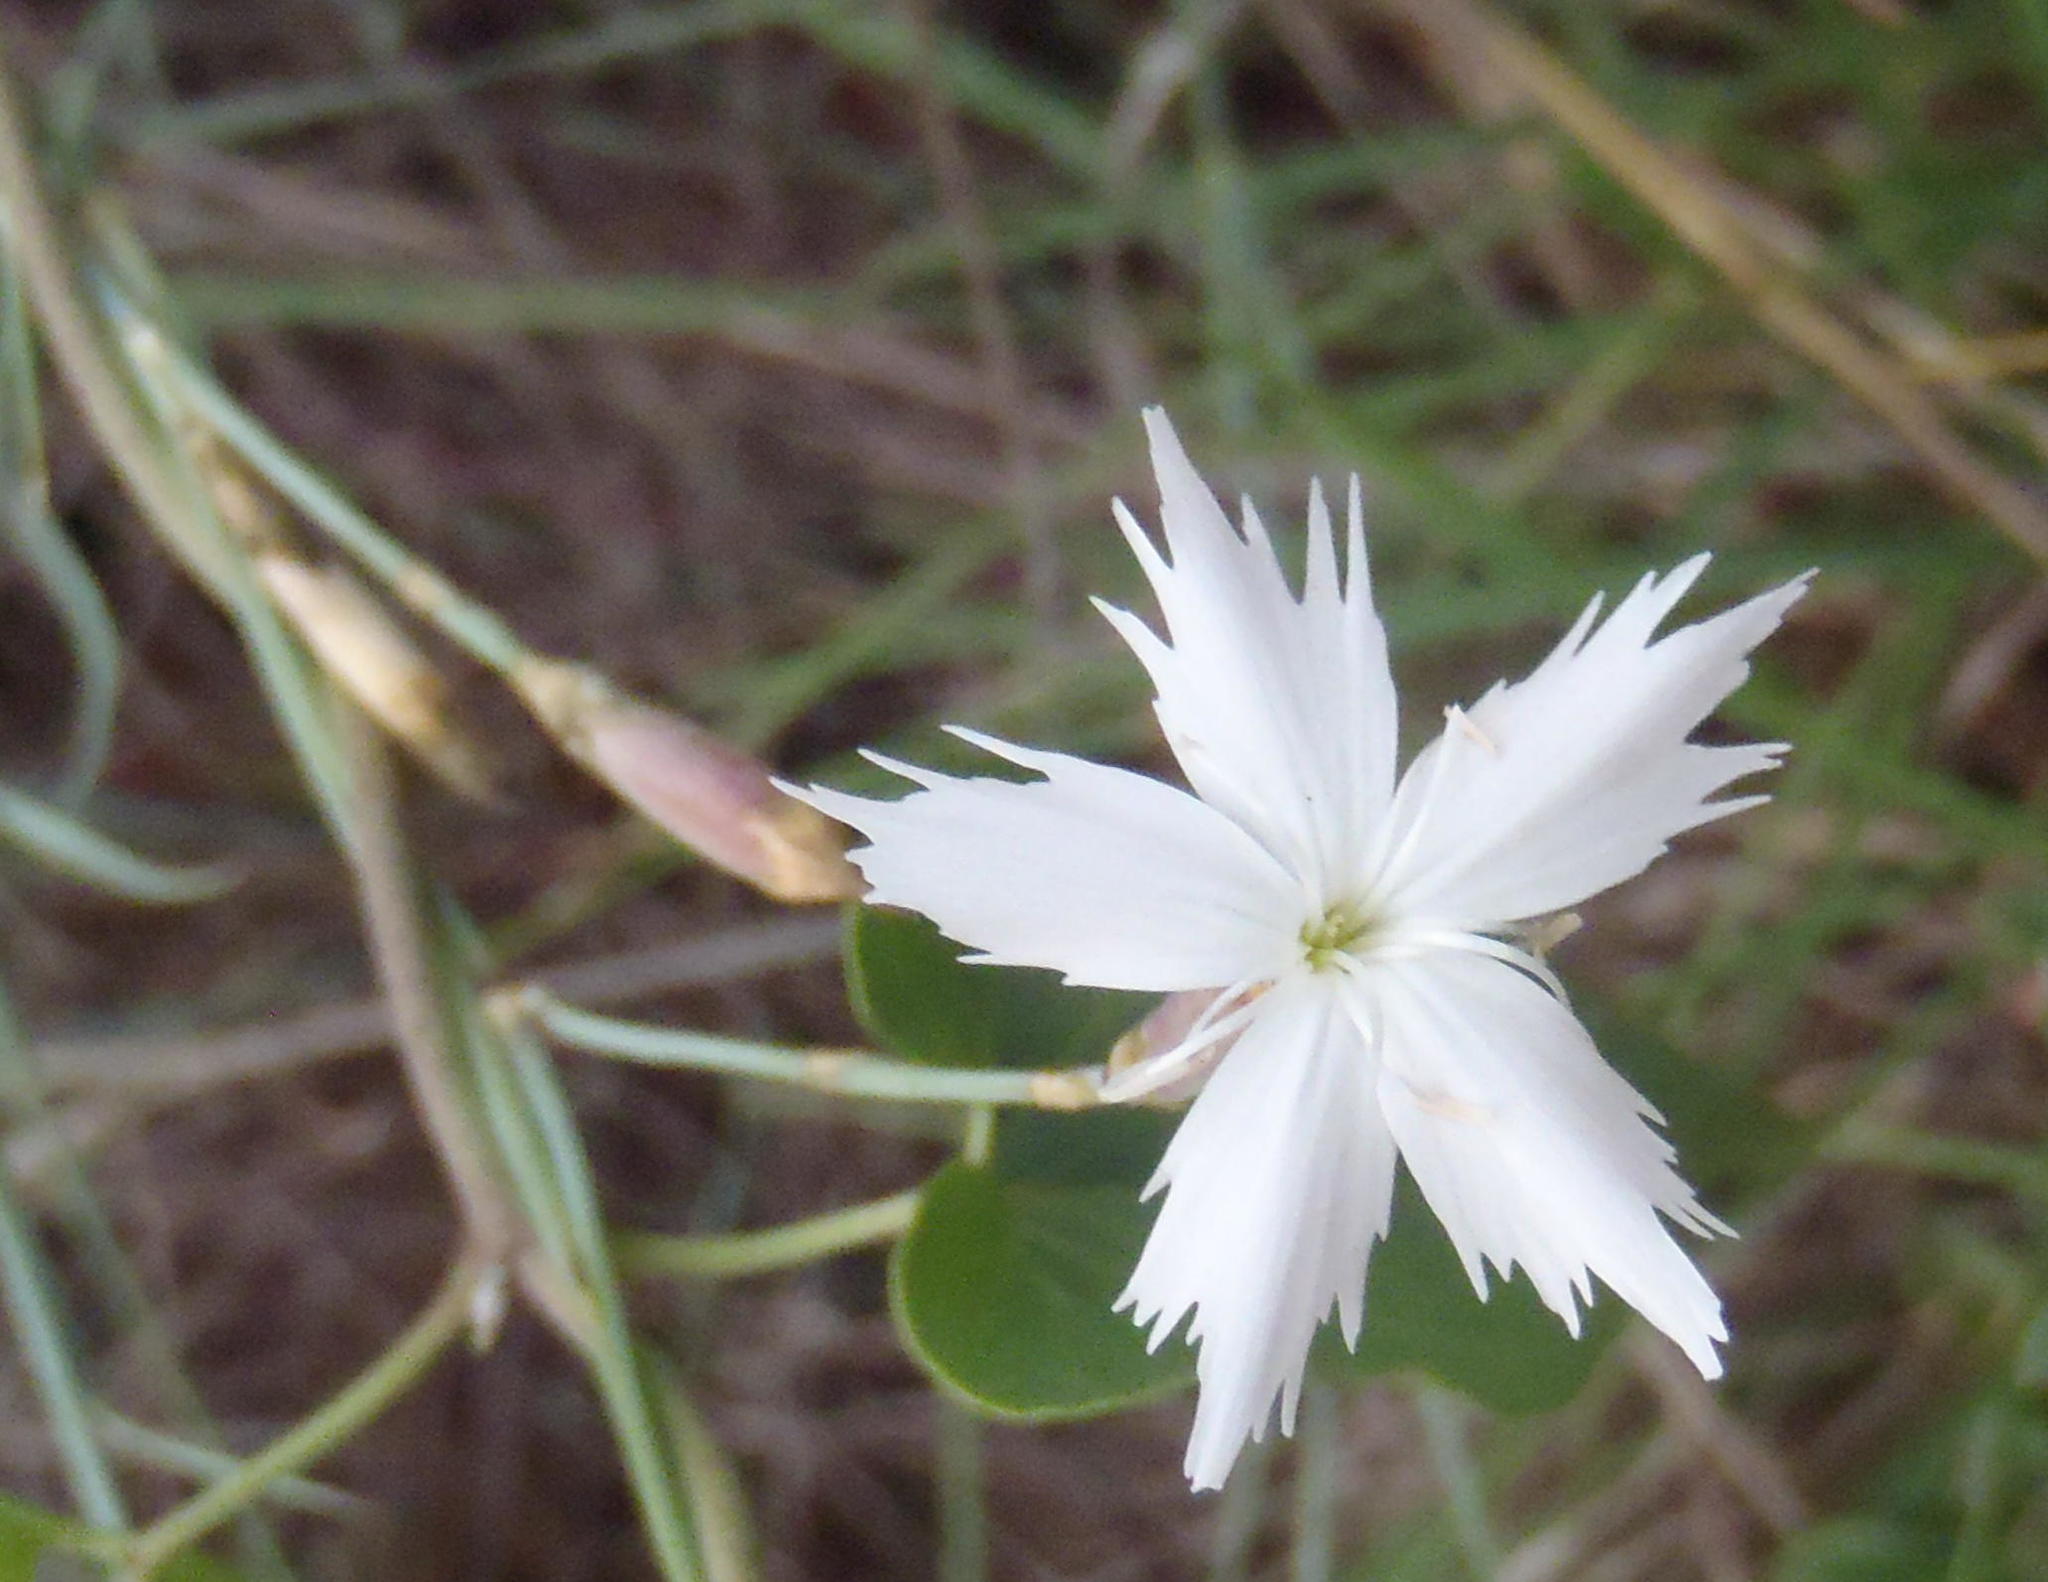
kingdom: Plantae
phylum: Tracheophyta
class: Magnoliopsida
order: Caryophyllales
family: Caryophyllaceae
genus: Dianthus
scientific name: Dianthus moviensis
